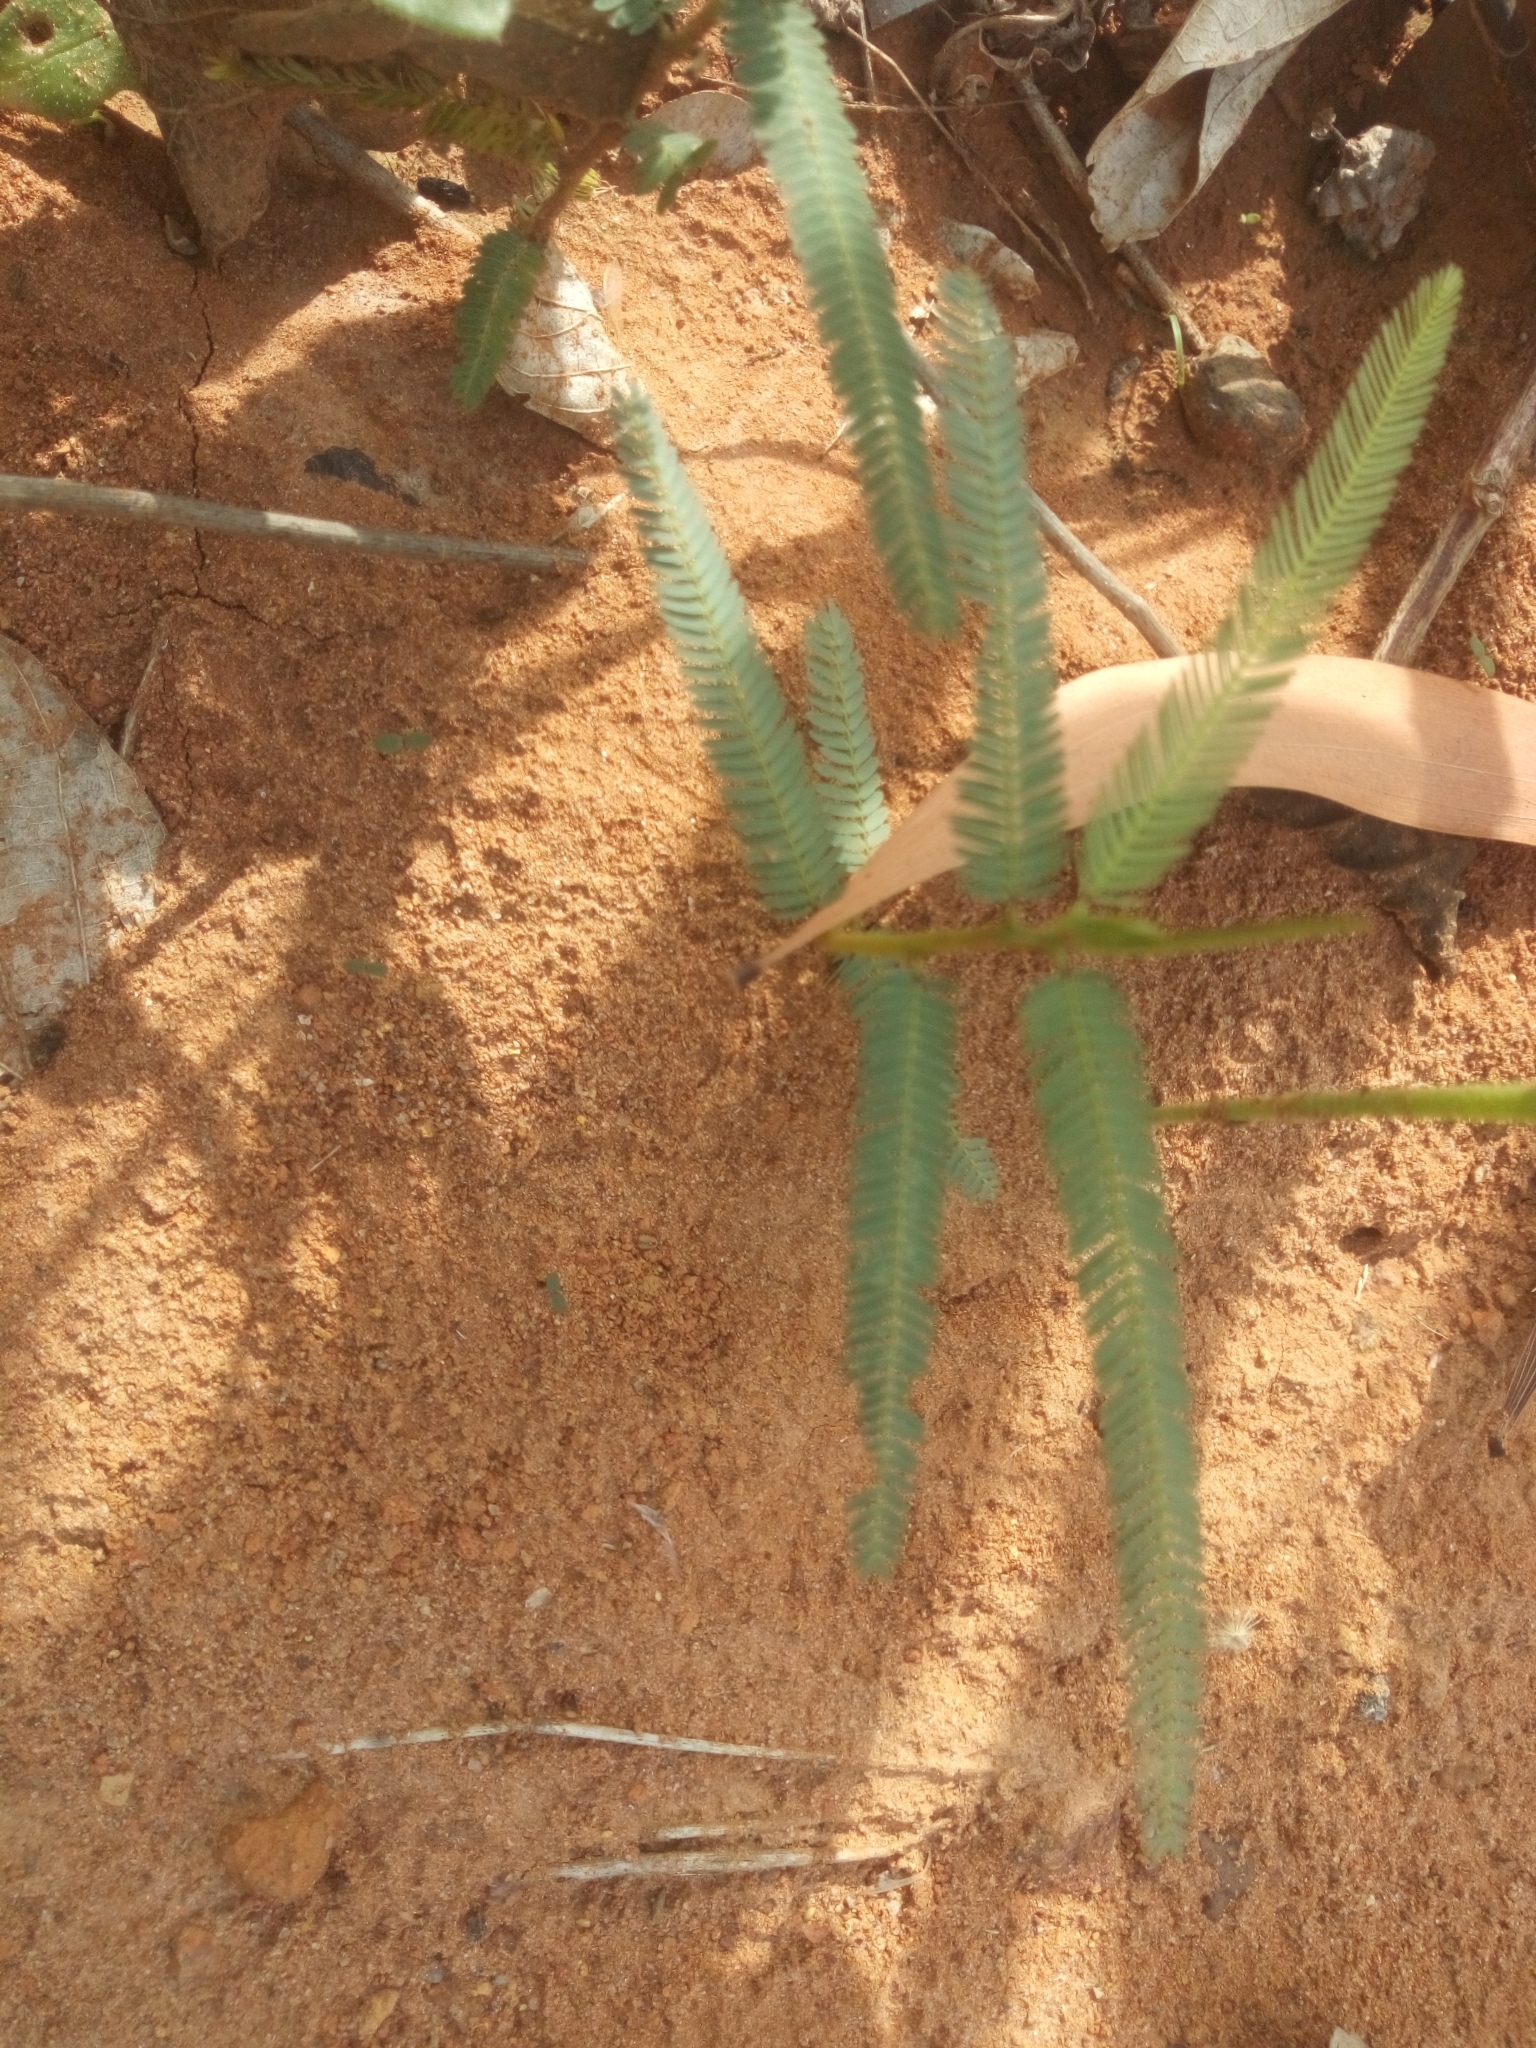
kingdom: Plantae
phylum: Tracheophyta
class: Magnoliopsida
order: Fabales
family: Fabaceae
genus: Chamaecrista
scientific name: Chamaecrista mimosoides
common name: Fish-bone cassia
